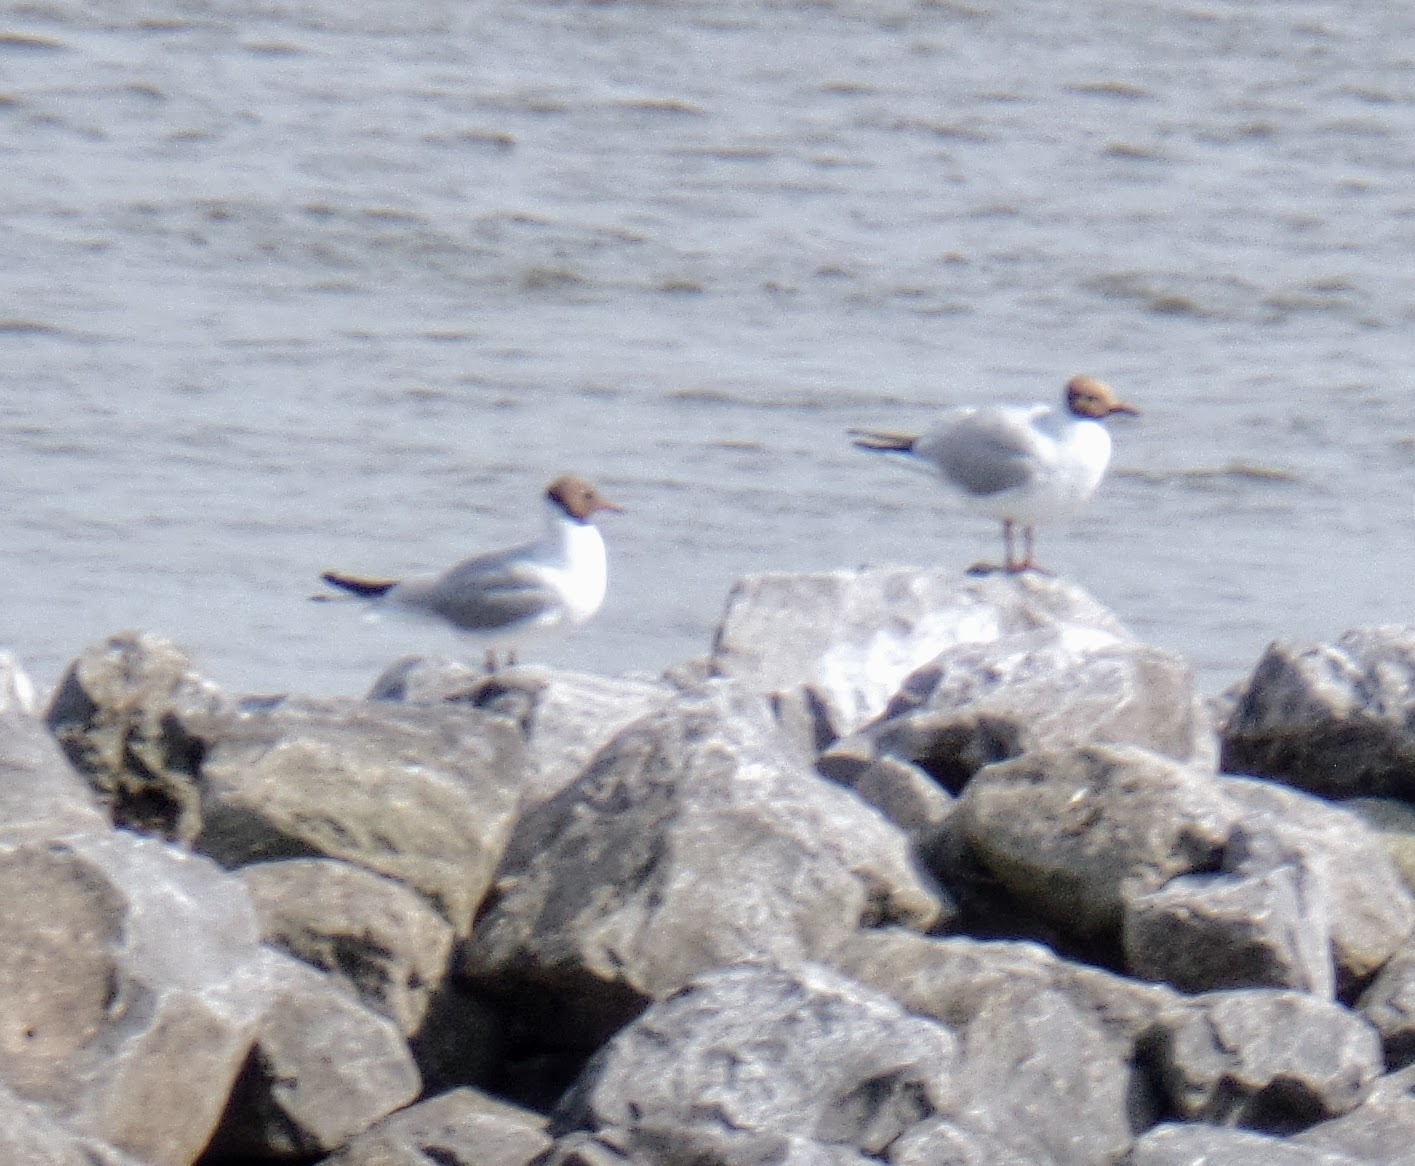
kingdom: Animalia
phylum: Chordata
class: Aves
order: Charadriiformes
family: Laridae
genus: Chroicocephalus
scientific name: Chroicocephalus ridibundus
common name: Black-headed gull
